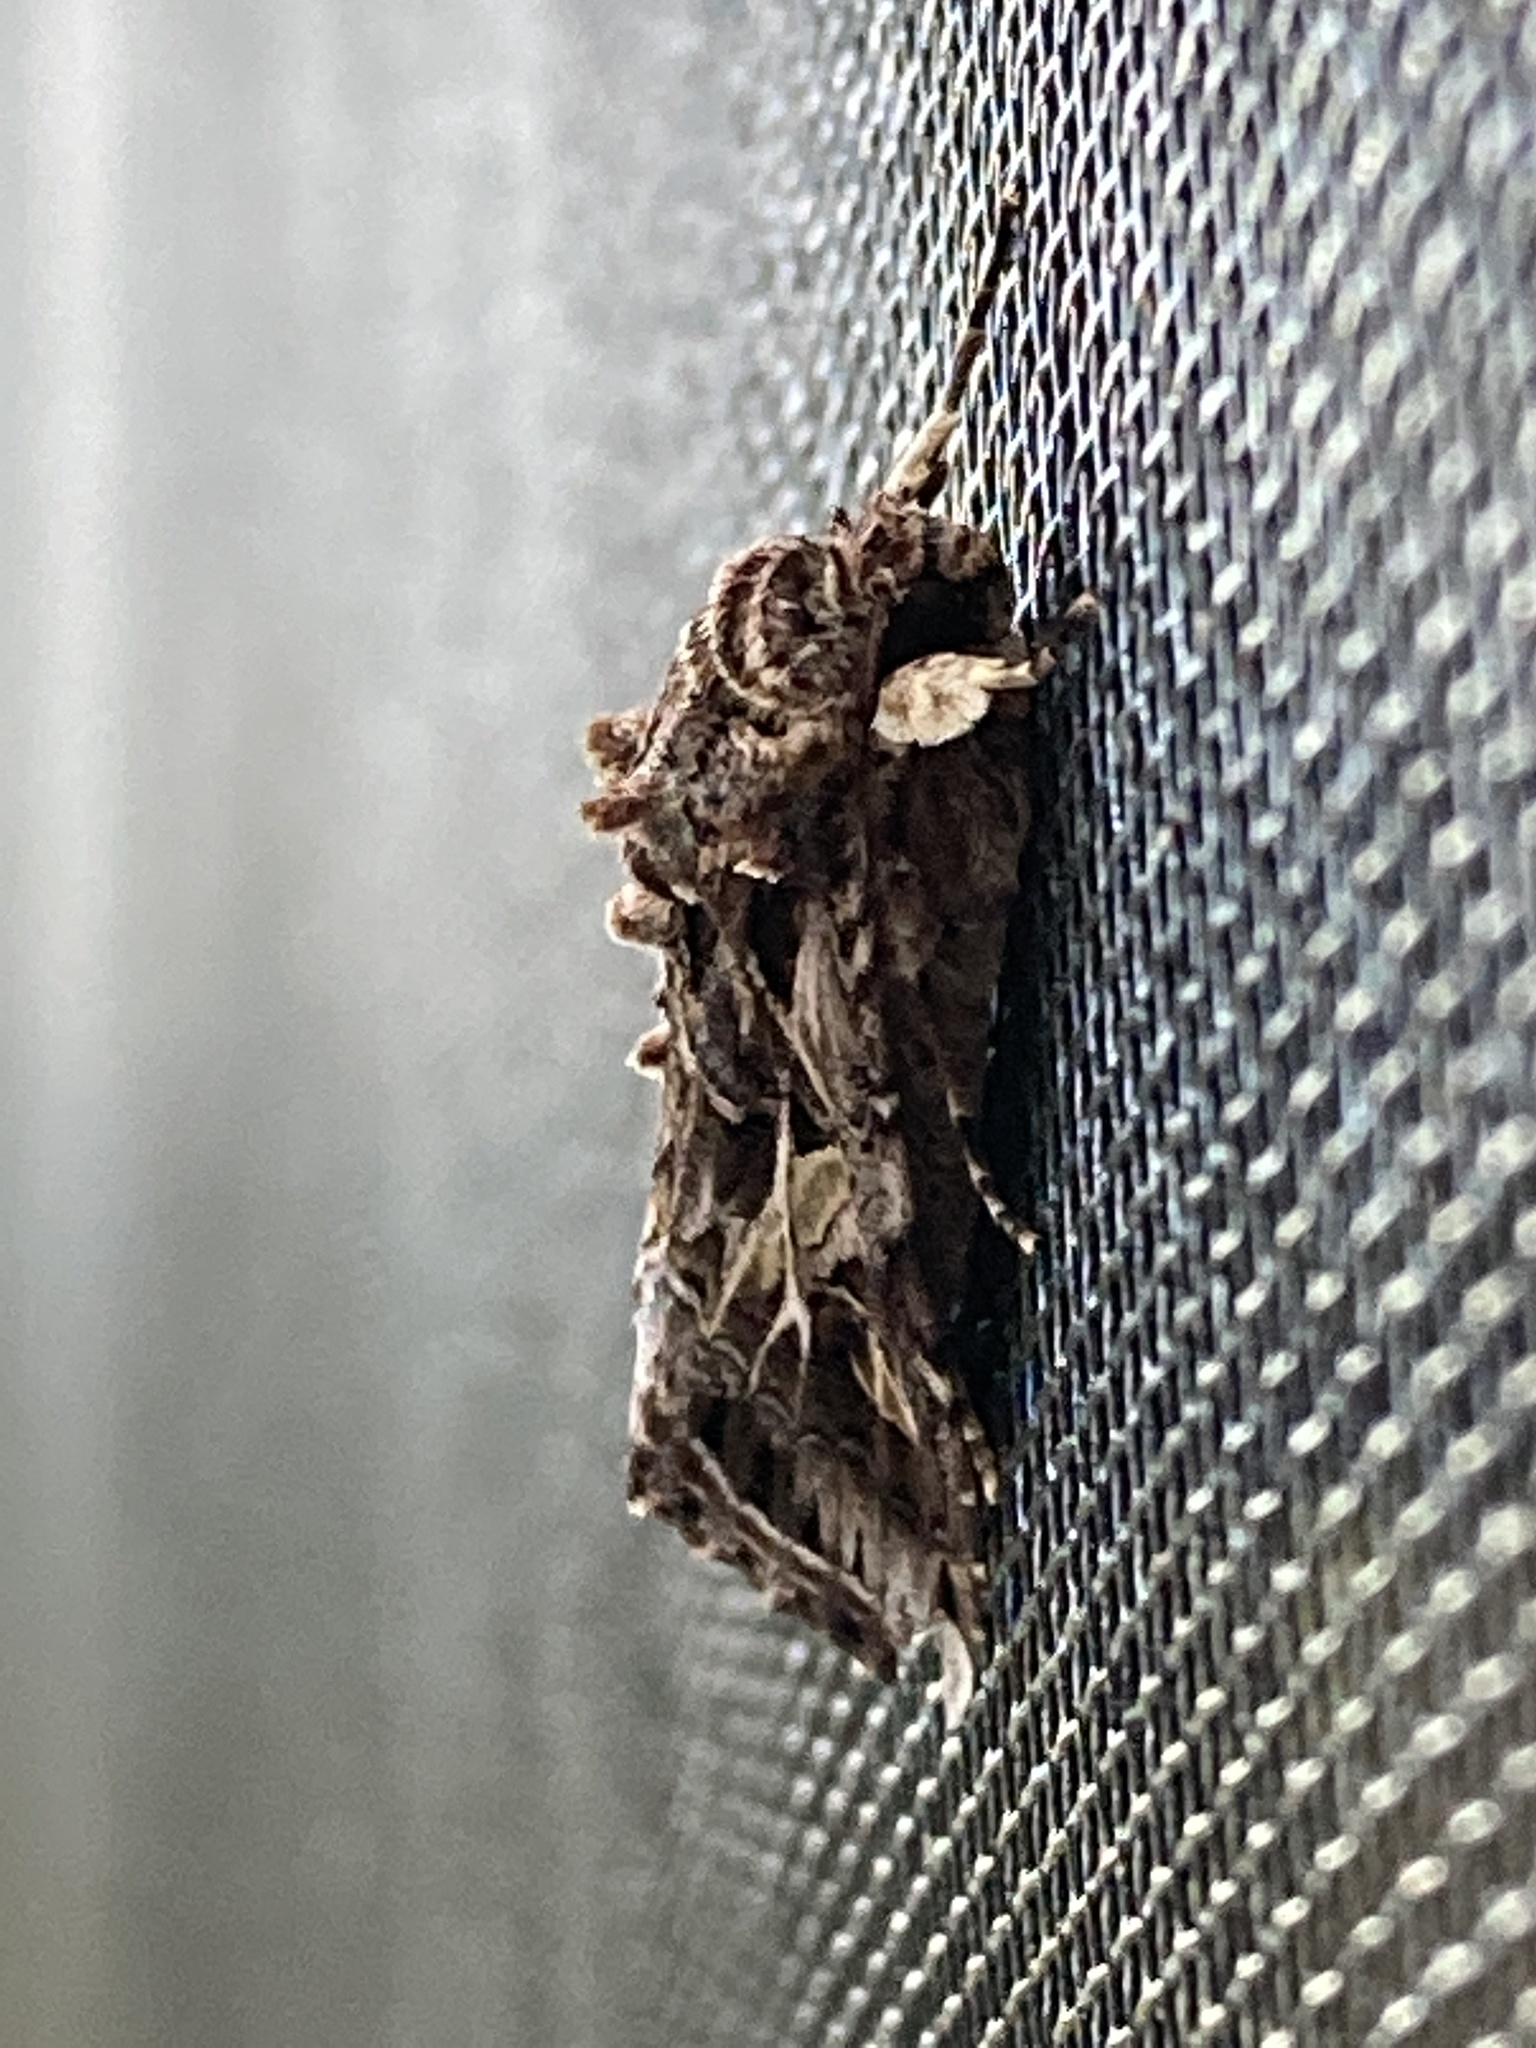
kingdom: Animalia
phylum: Arthropoda
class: Insecta
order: Lepidoptera
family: Noctuidae
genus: Spodoptera
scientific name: Spodoptera ornithogalli
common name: Yellow-striped armyworm
